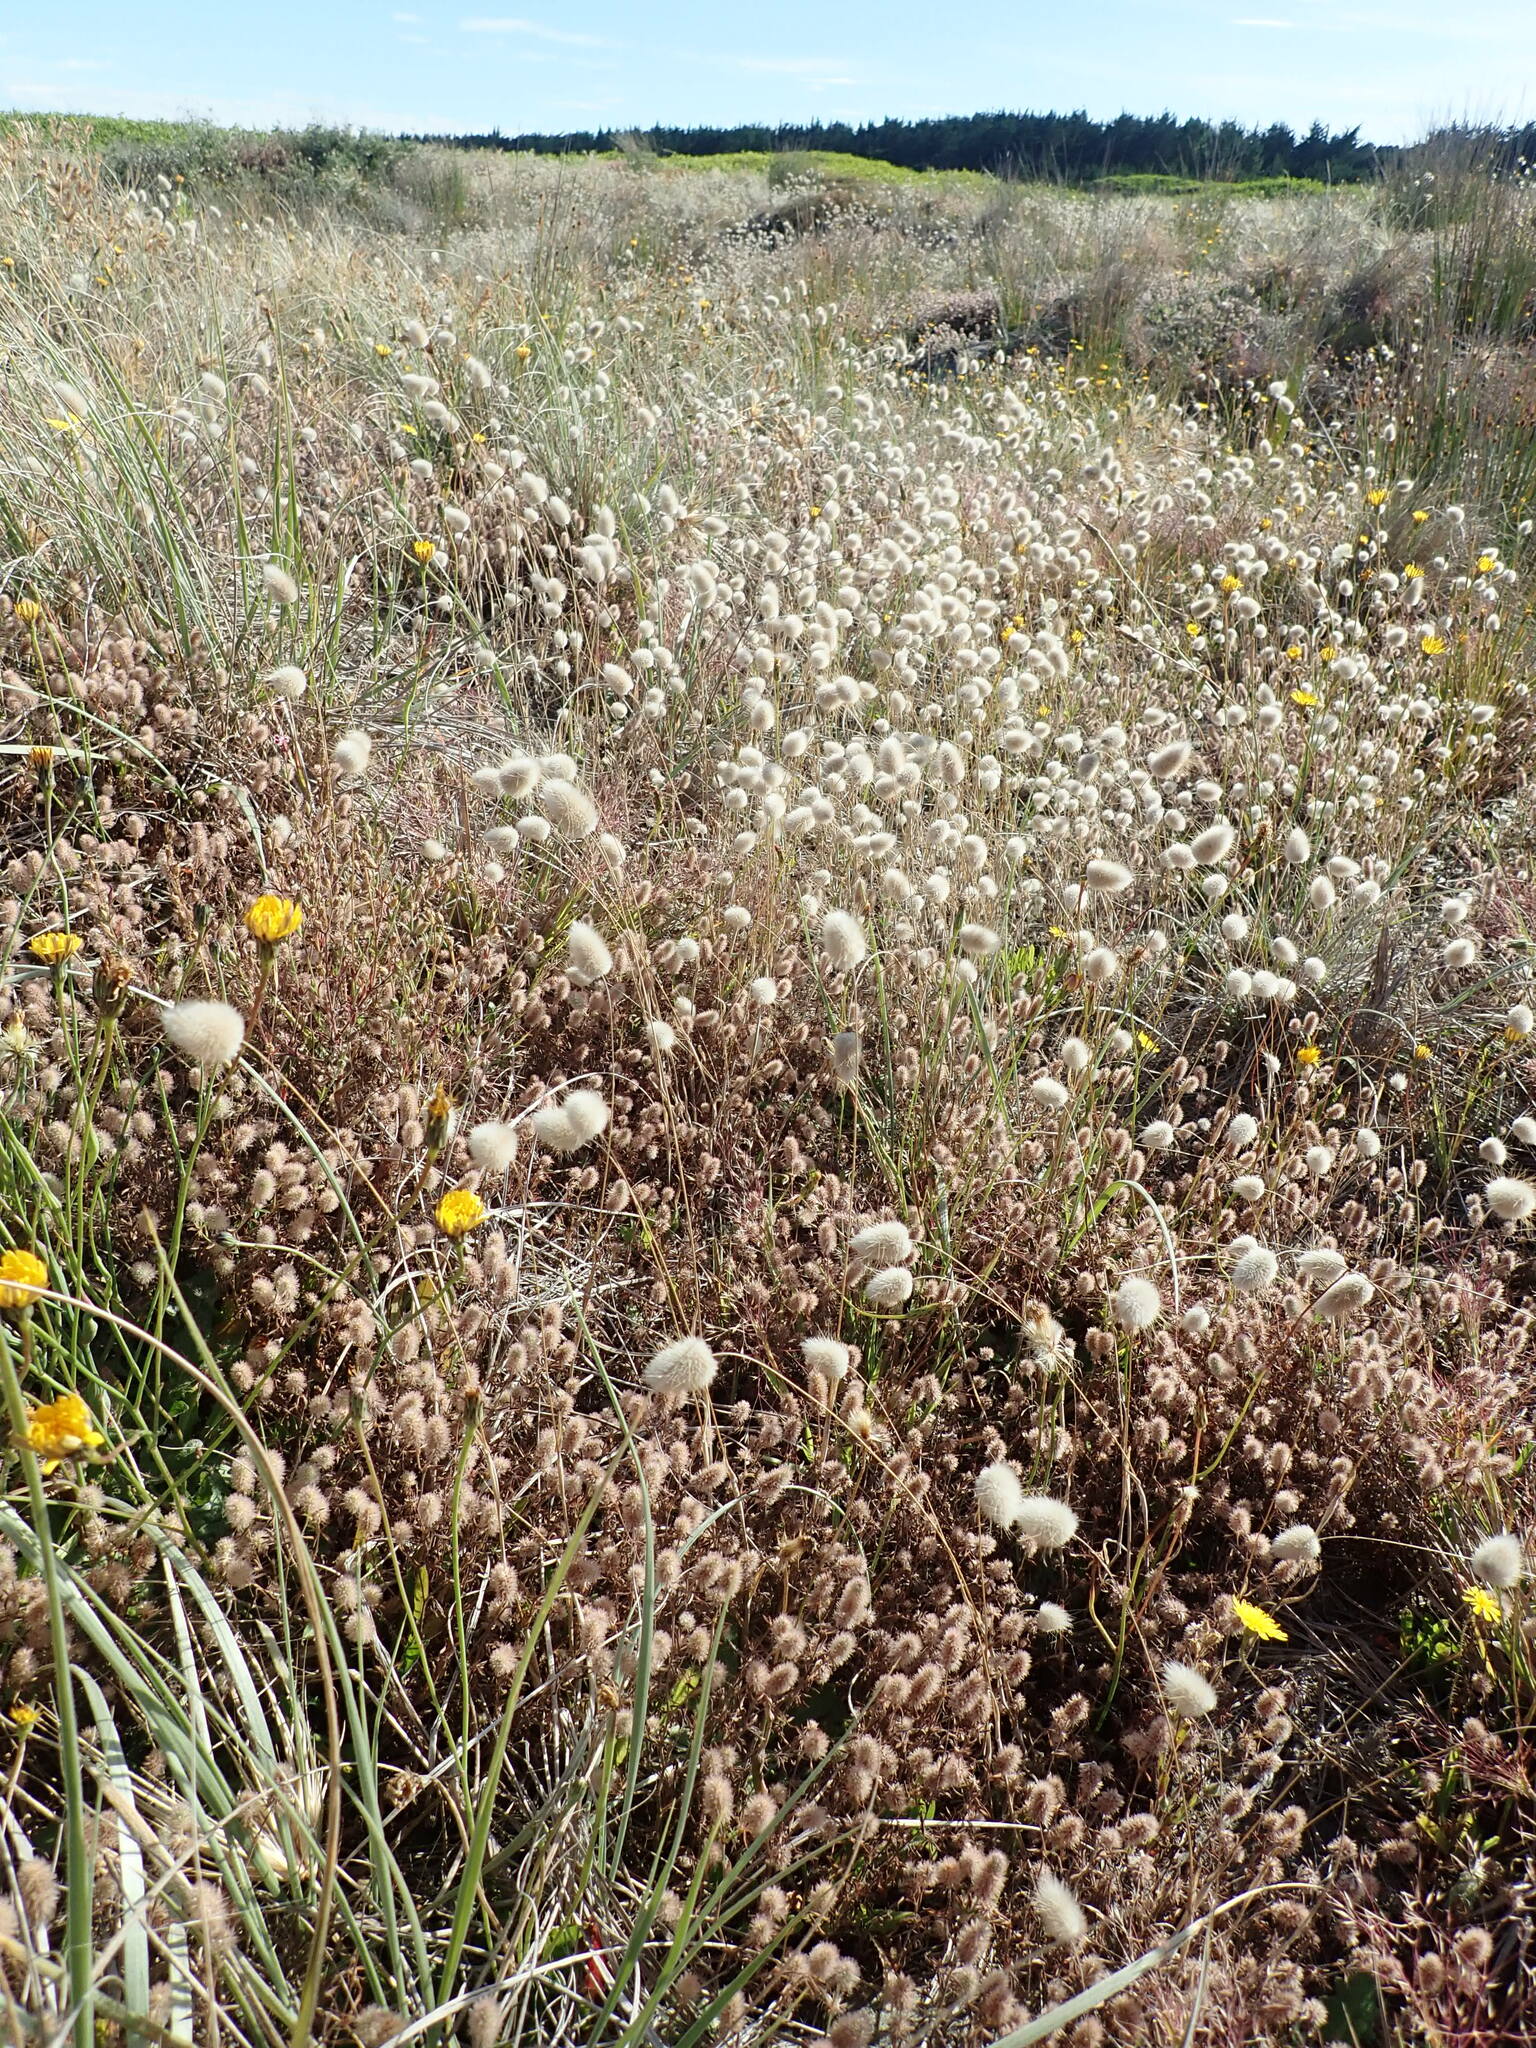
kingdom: Plantae
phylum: Tracheophyta
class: Liliopsida
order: Poales
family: Poaceae
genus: Lagurus
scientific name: Lagurus ovatus
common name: Hare's-tail
